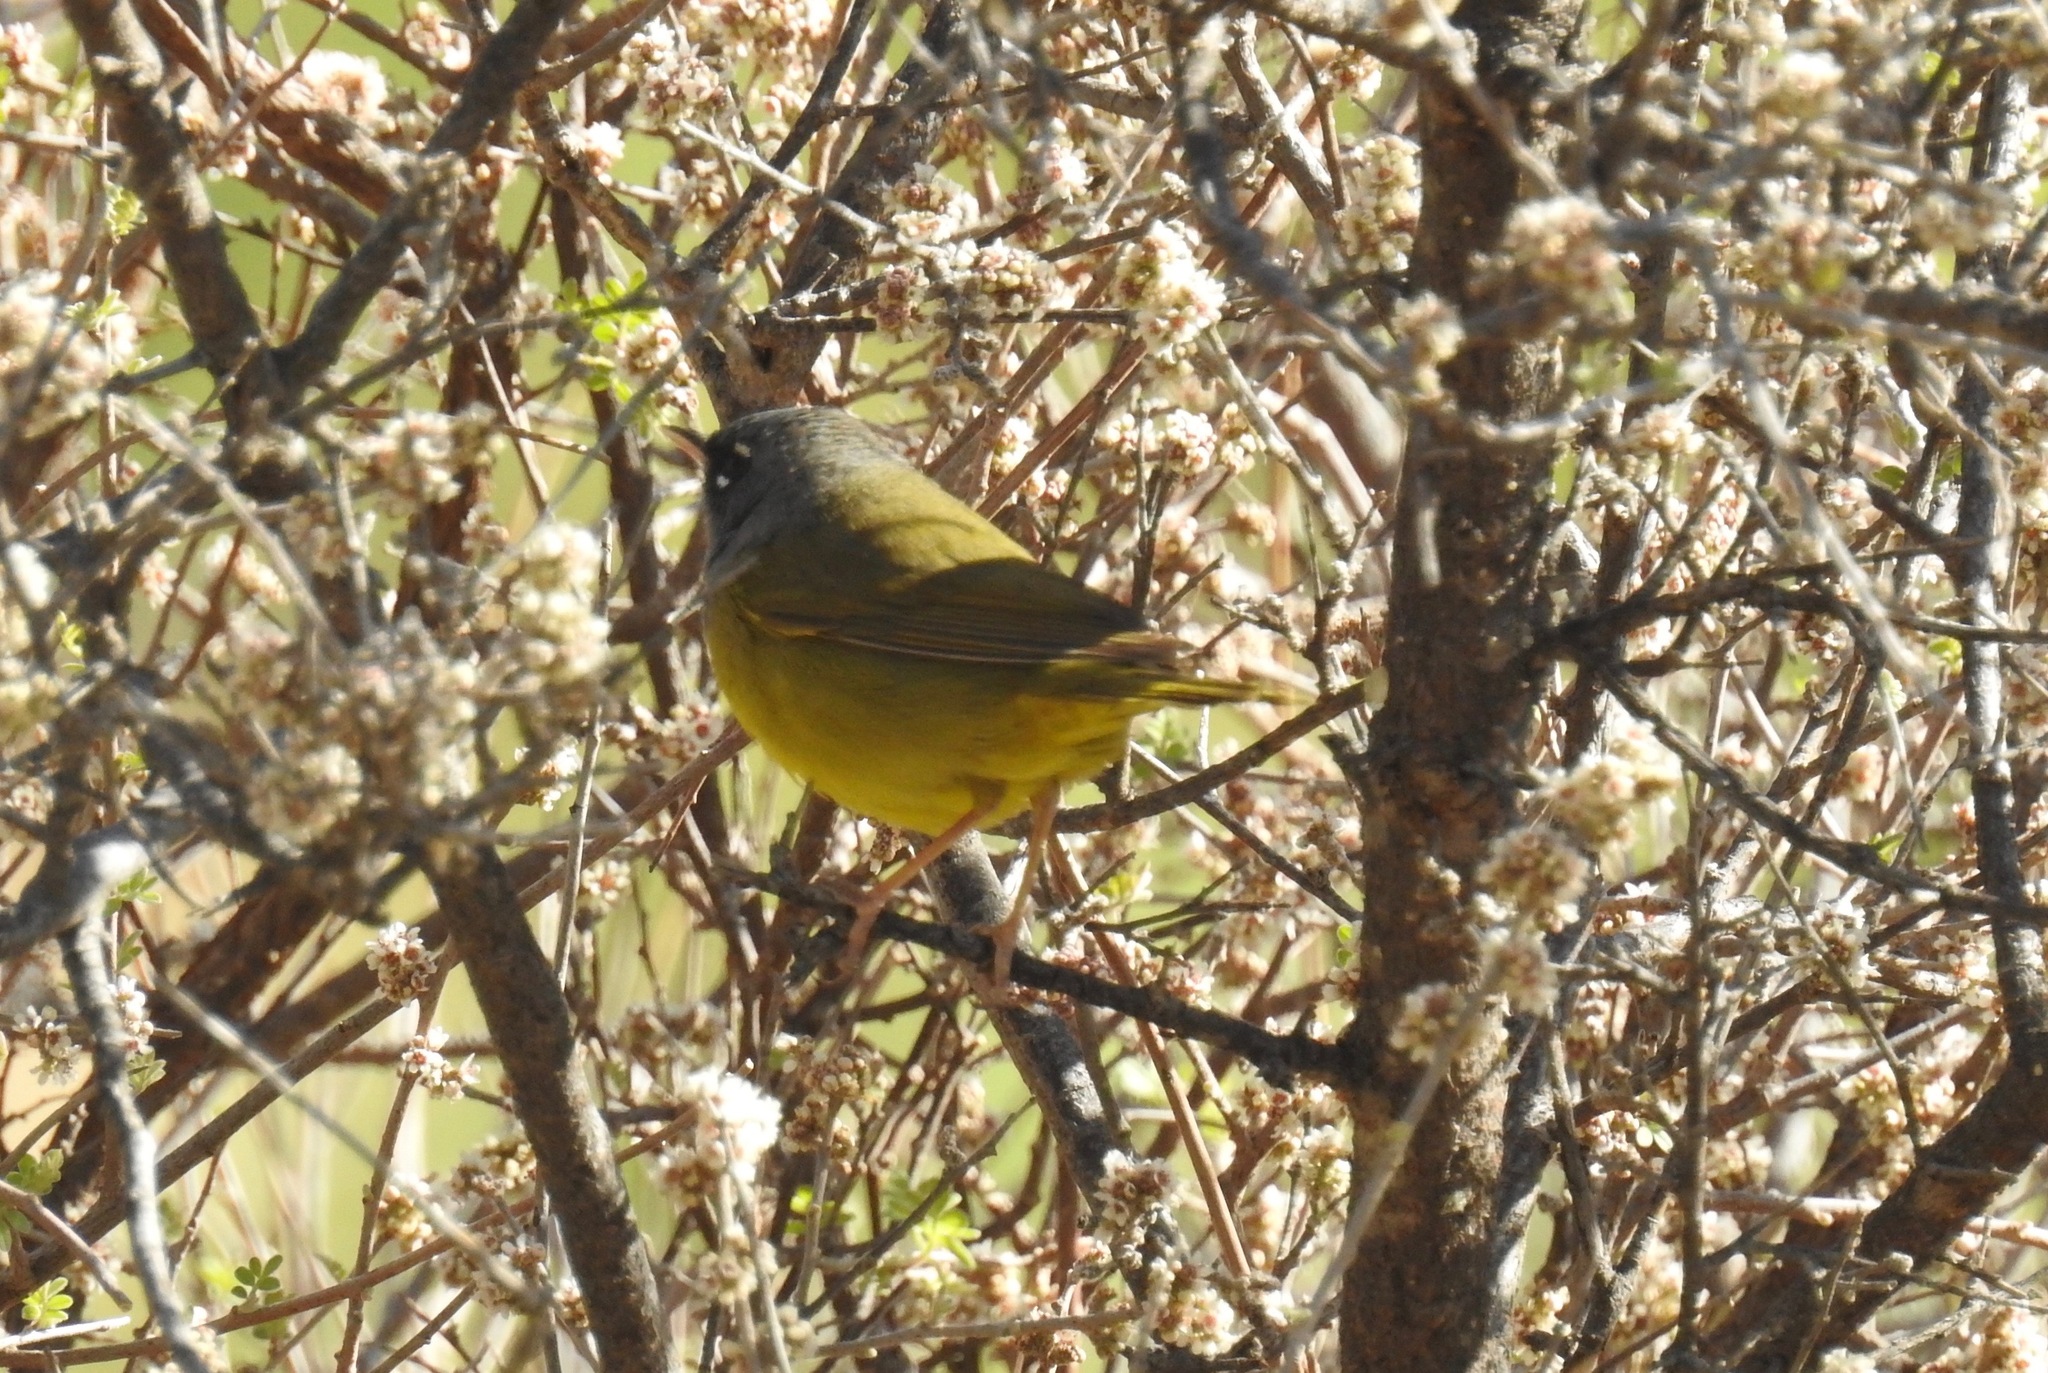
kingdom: Animalia
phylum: Chordata
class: Aves
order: Passeriformes
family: Parulidae
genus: Geothlypis
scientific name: Geothlypis tolmiei
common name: Macgillivray's warbler
